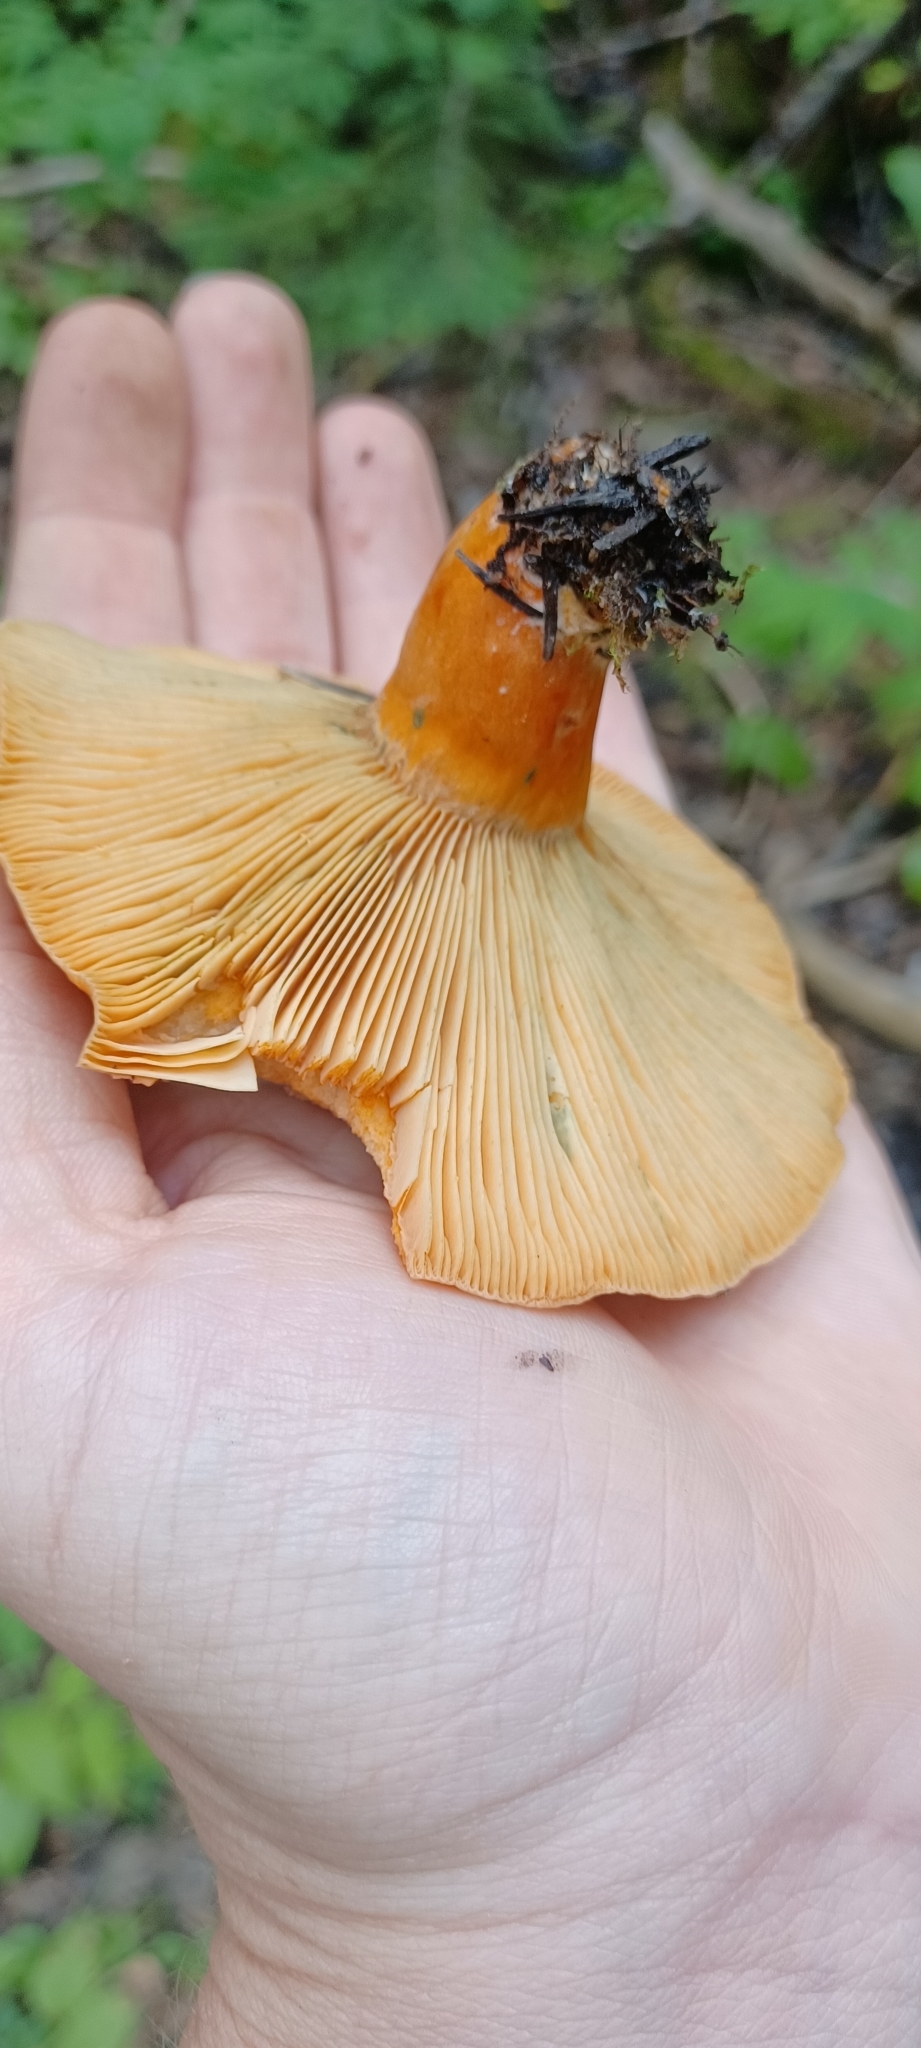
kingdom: Fungi
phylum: Basidiomycota
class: Agaricomycetes
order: Russulales
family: Russulaceae
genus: Lactarius
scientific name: Lactarius deliciosus
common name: Saffron milk-cap
